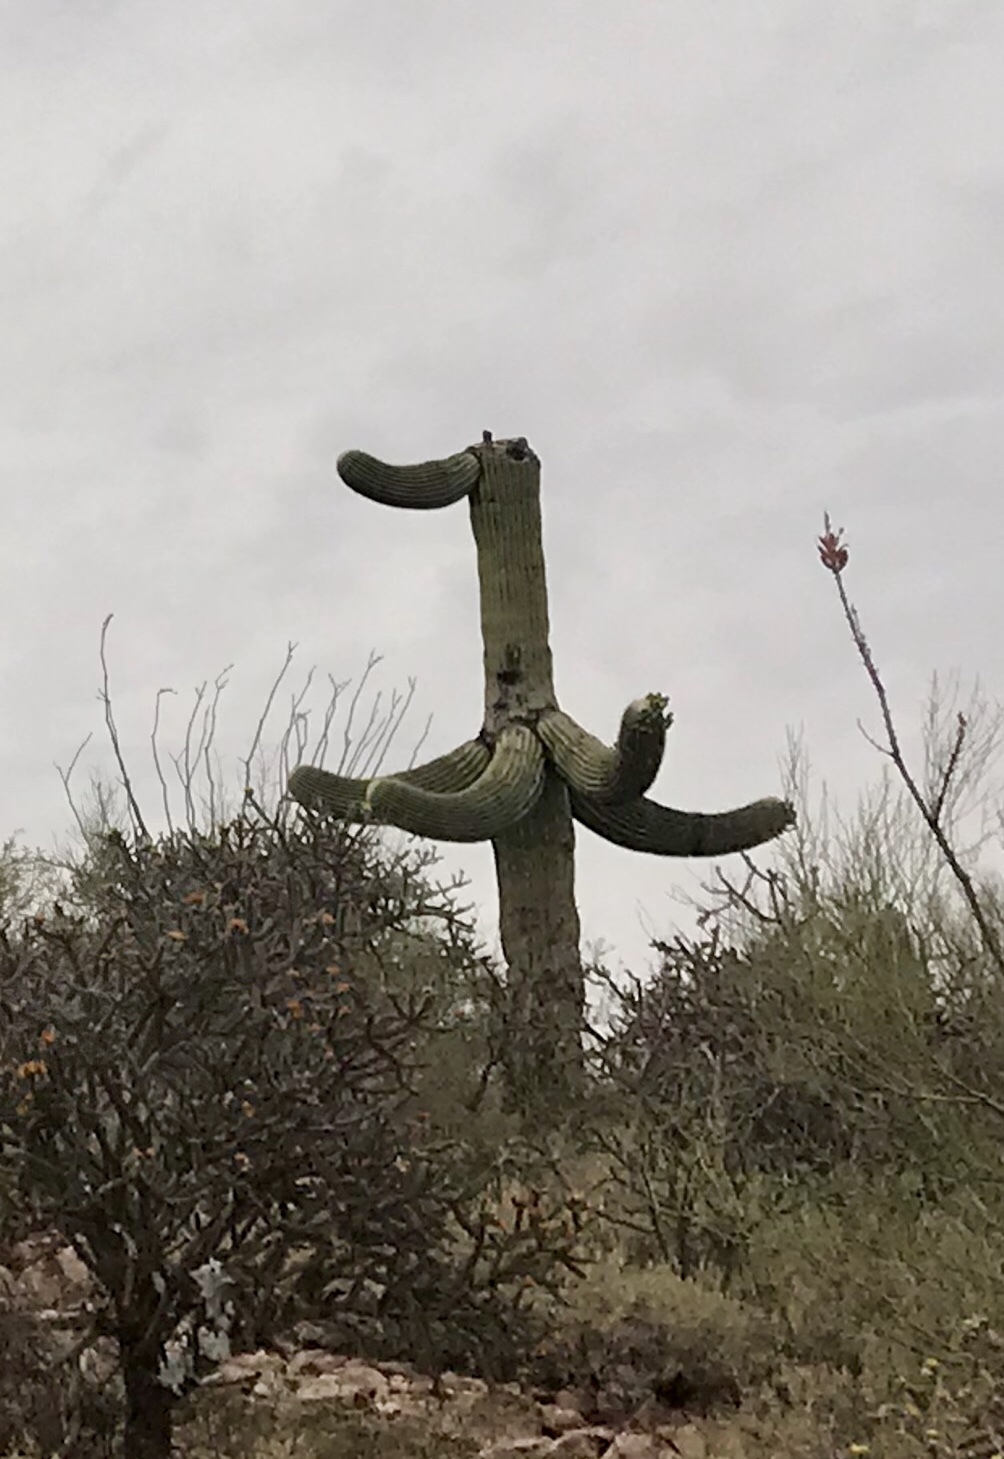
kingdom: Plantae
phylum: Tracheophyta
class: Magnoliopsida
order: Caryophyllales
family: Cactaceae
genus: Carnegiea
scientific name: Carnegiea gigantea
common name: Saguaro
